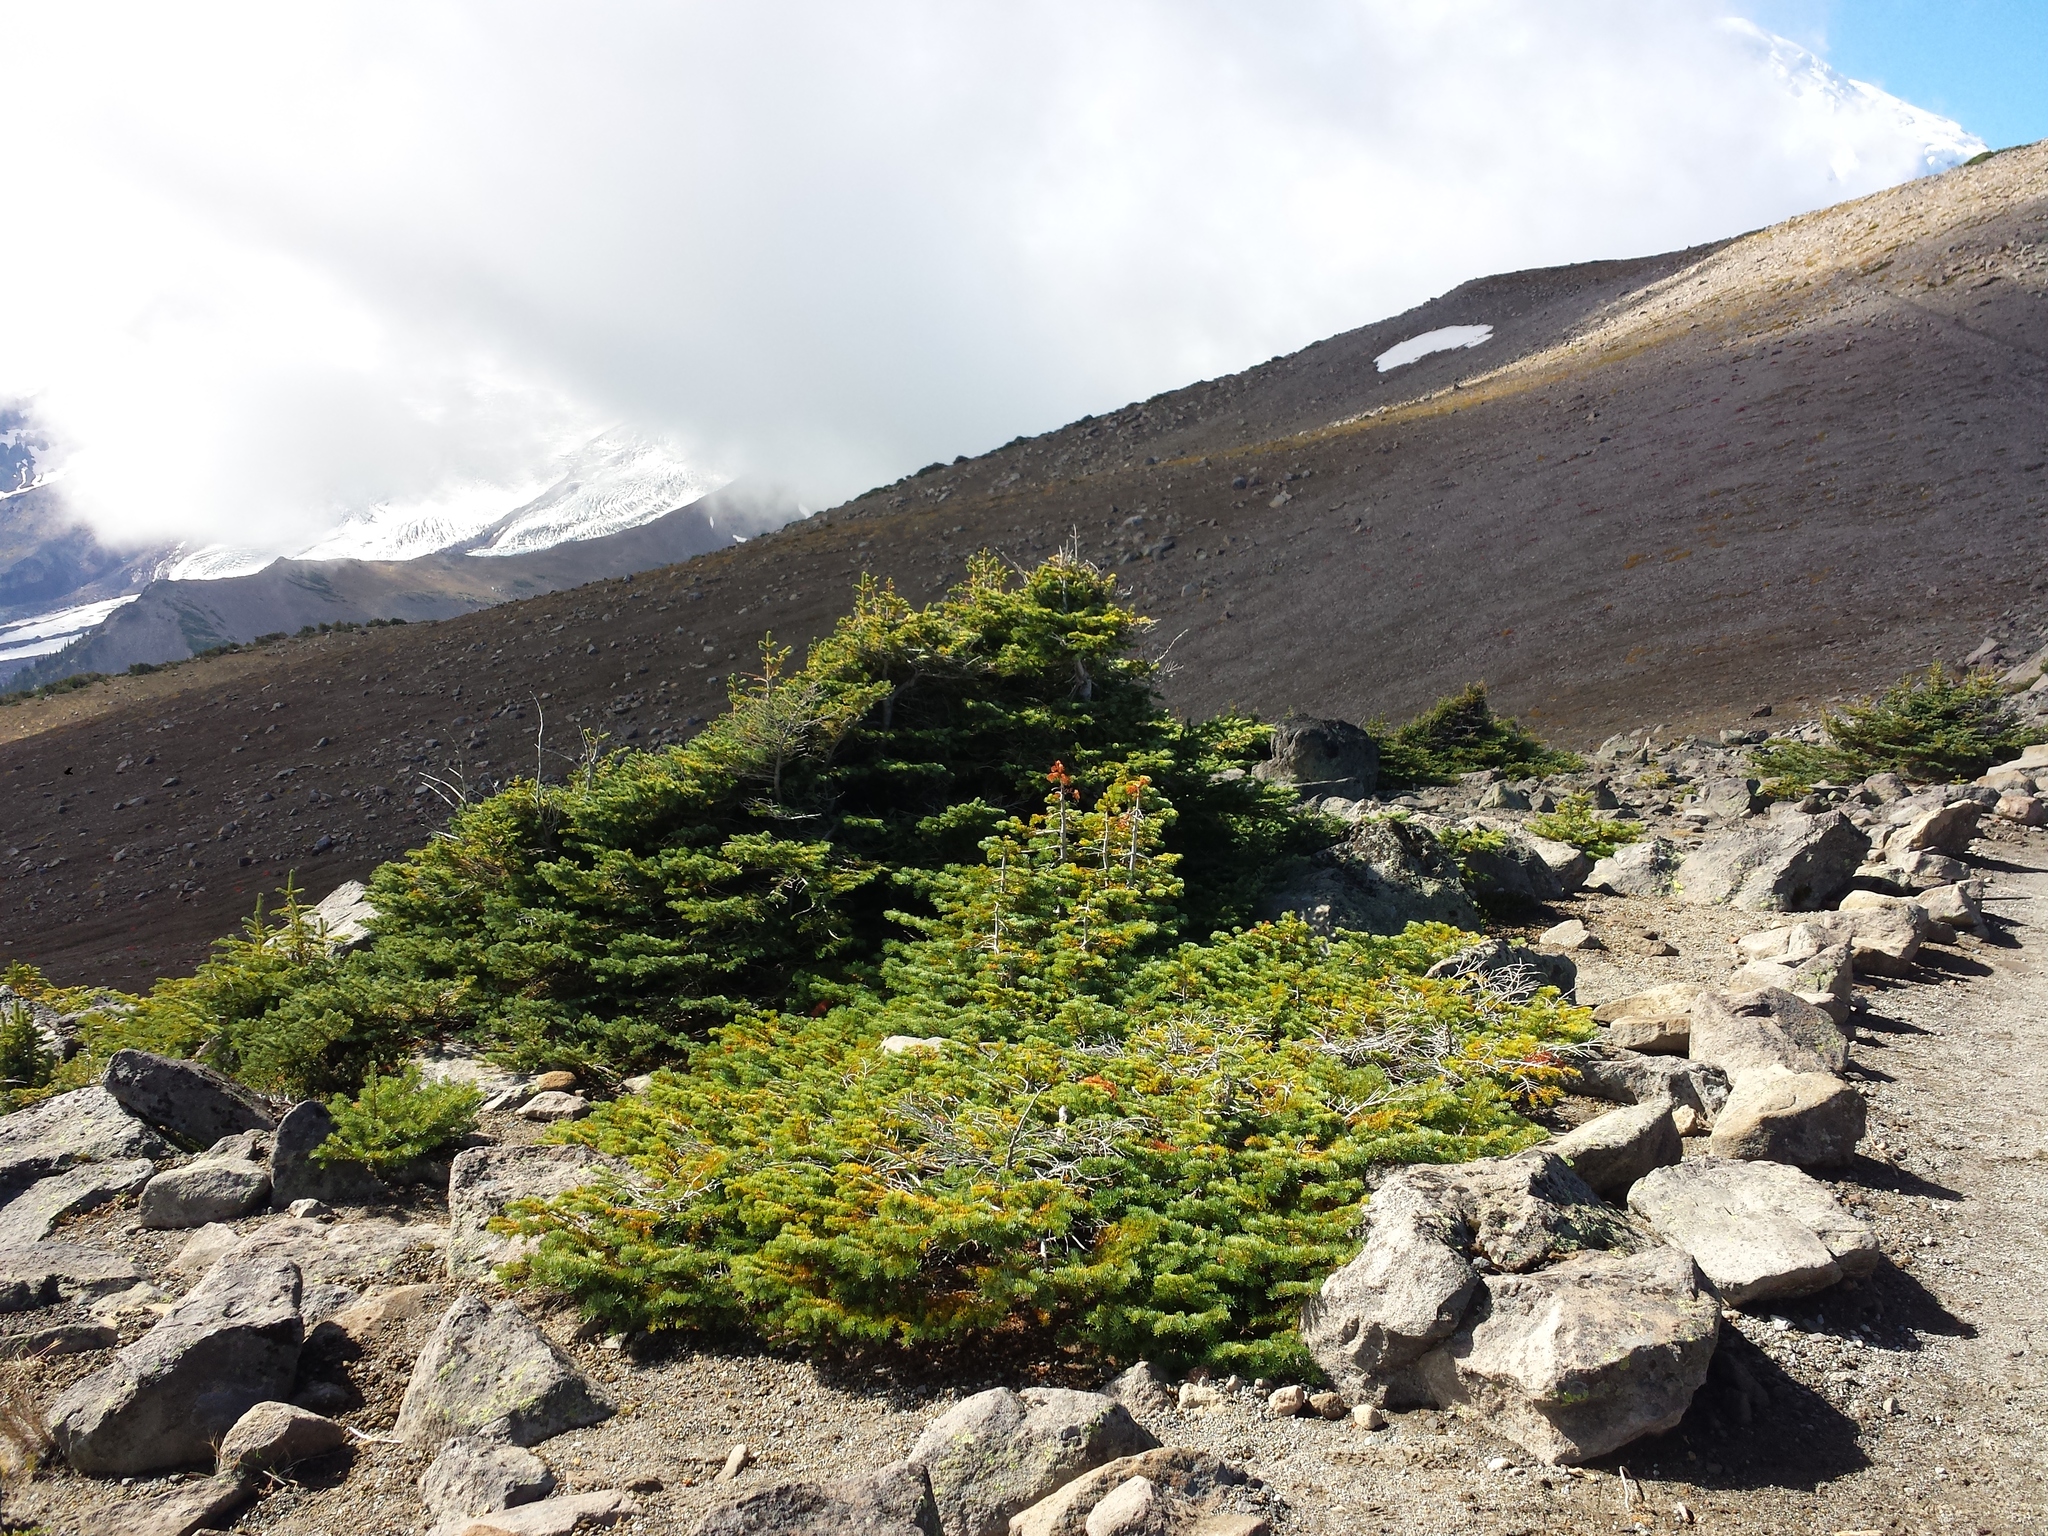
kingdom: Plantae
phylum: Tracheophyta
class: Pinopsida
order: Pinales
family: Pinaceae
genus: Abies
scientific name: Abies lasiocarpa
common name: Subalpine fir
